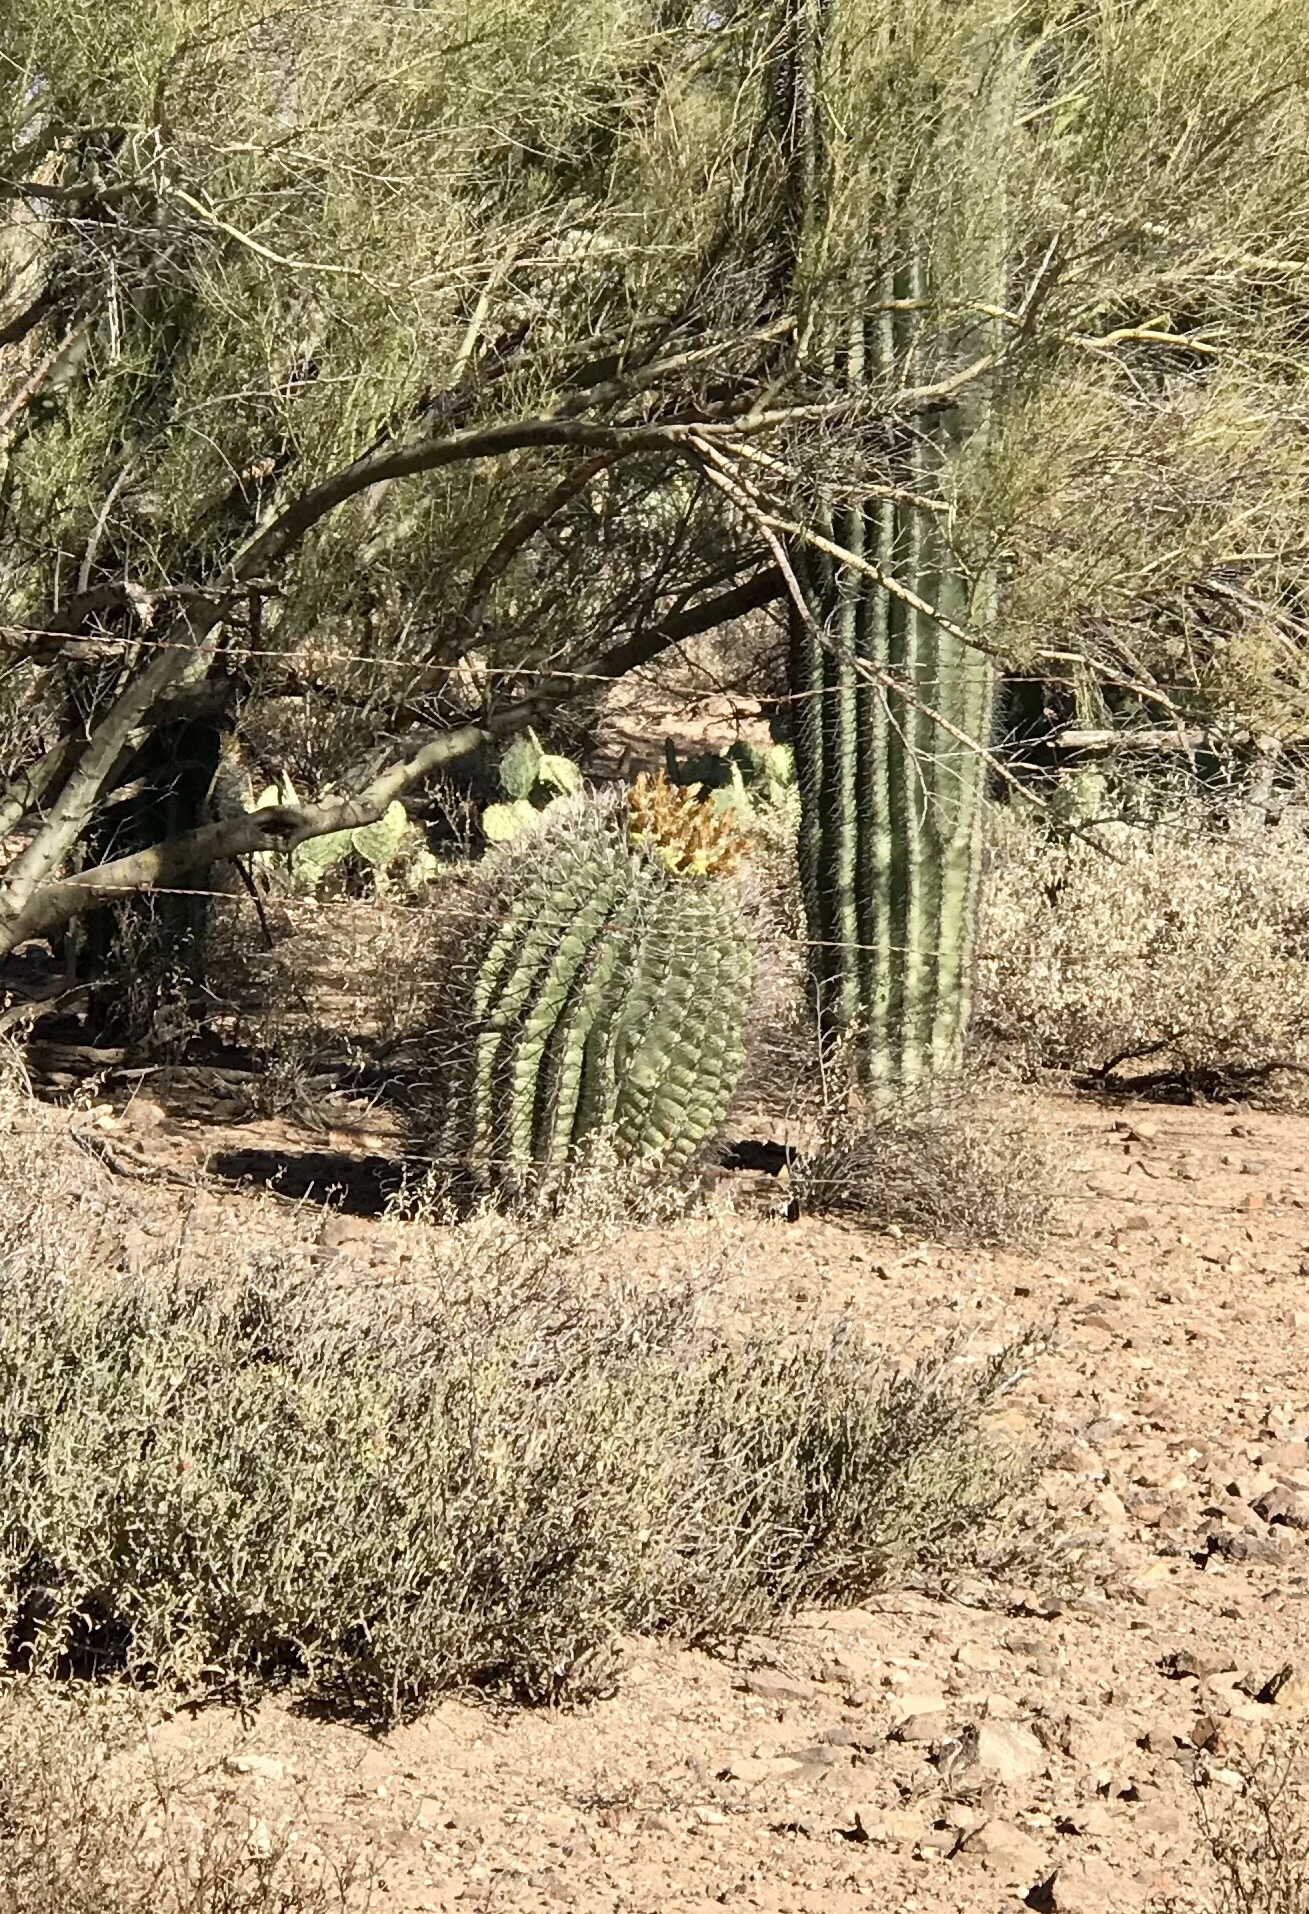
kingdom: Plantae
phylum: Tracheophyta
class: Magnoliopsida
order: Caryophyllales
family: Cactaceae
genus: Ferocactus
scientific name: Ferocactus wislizeni
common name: Candy barrel cactus
